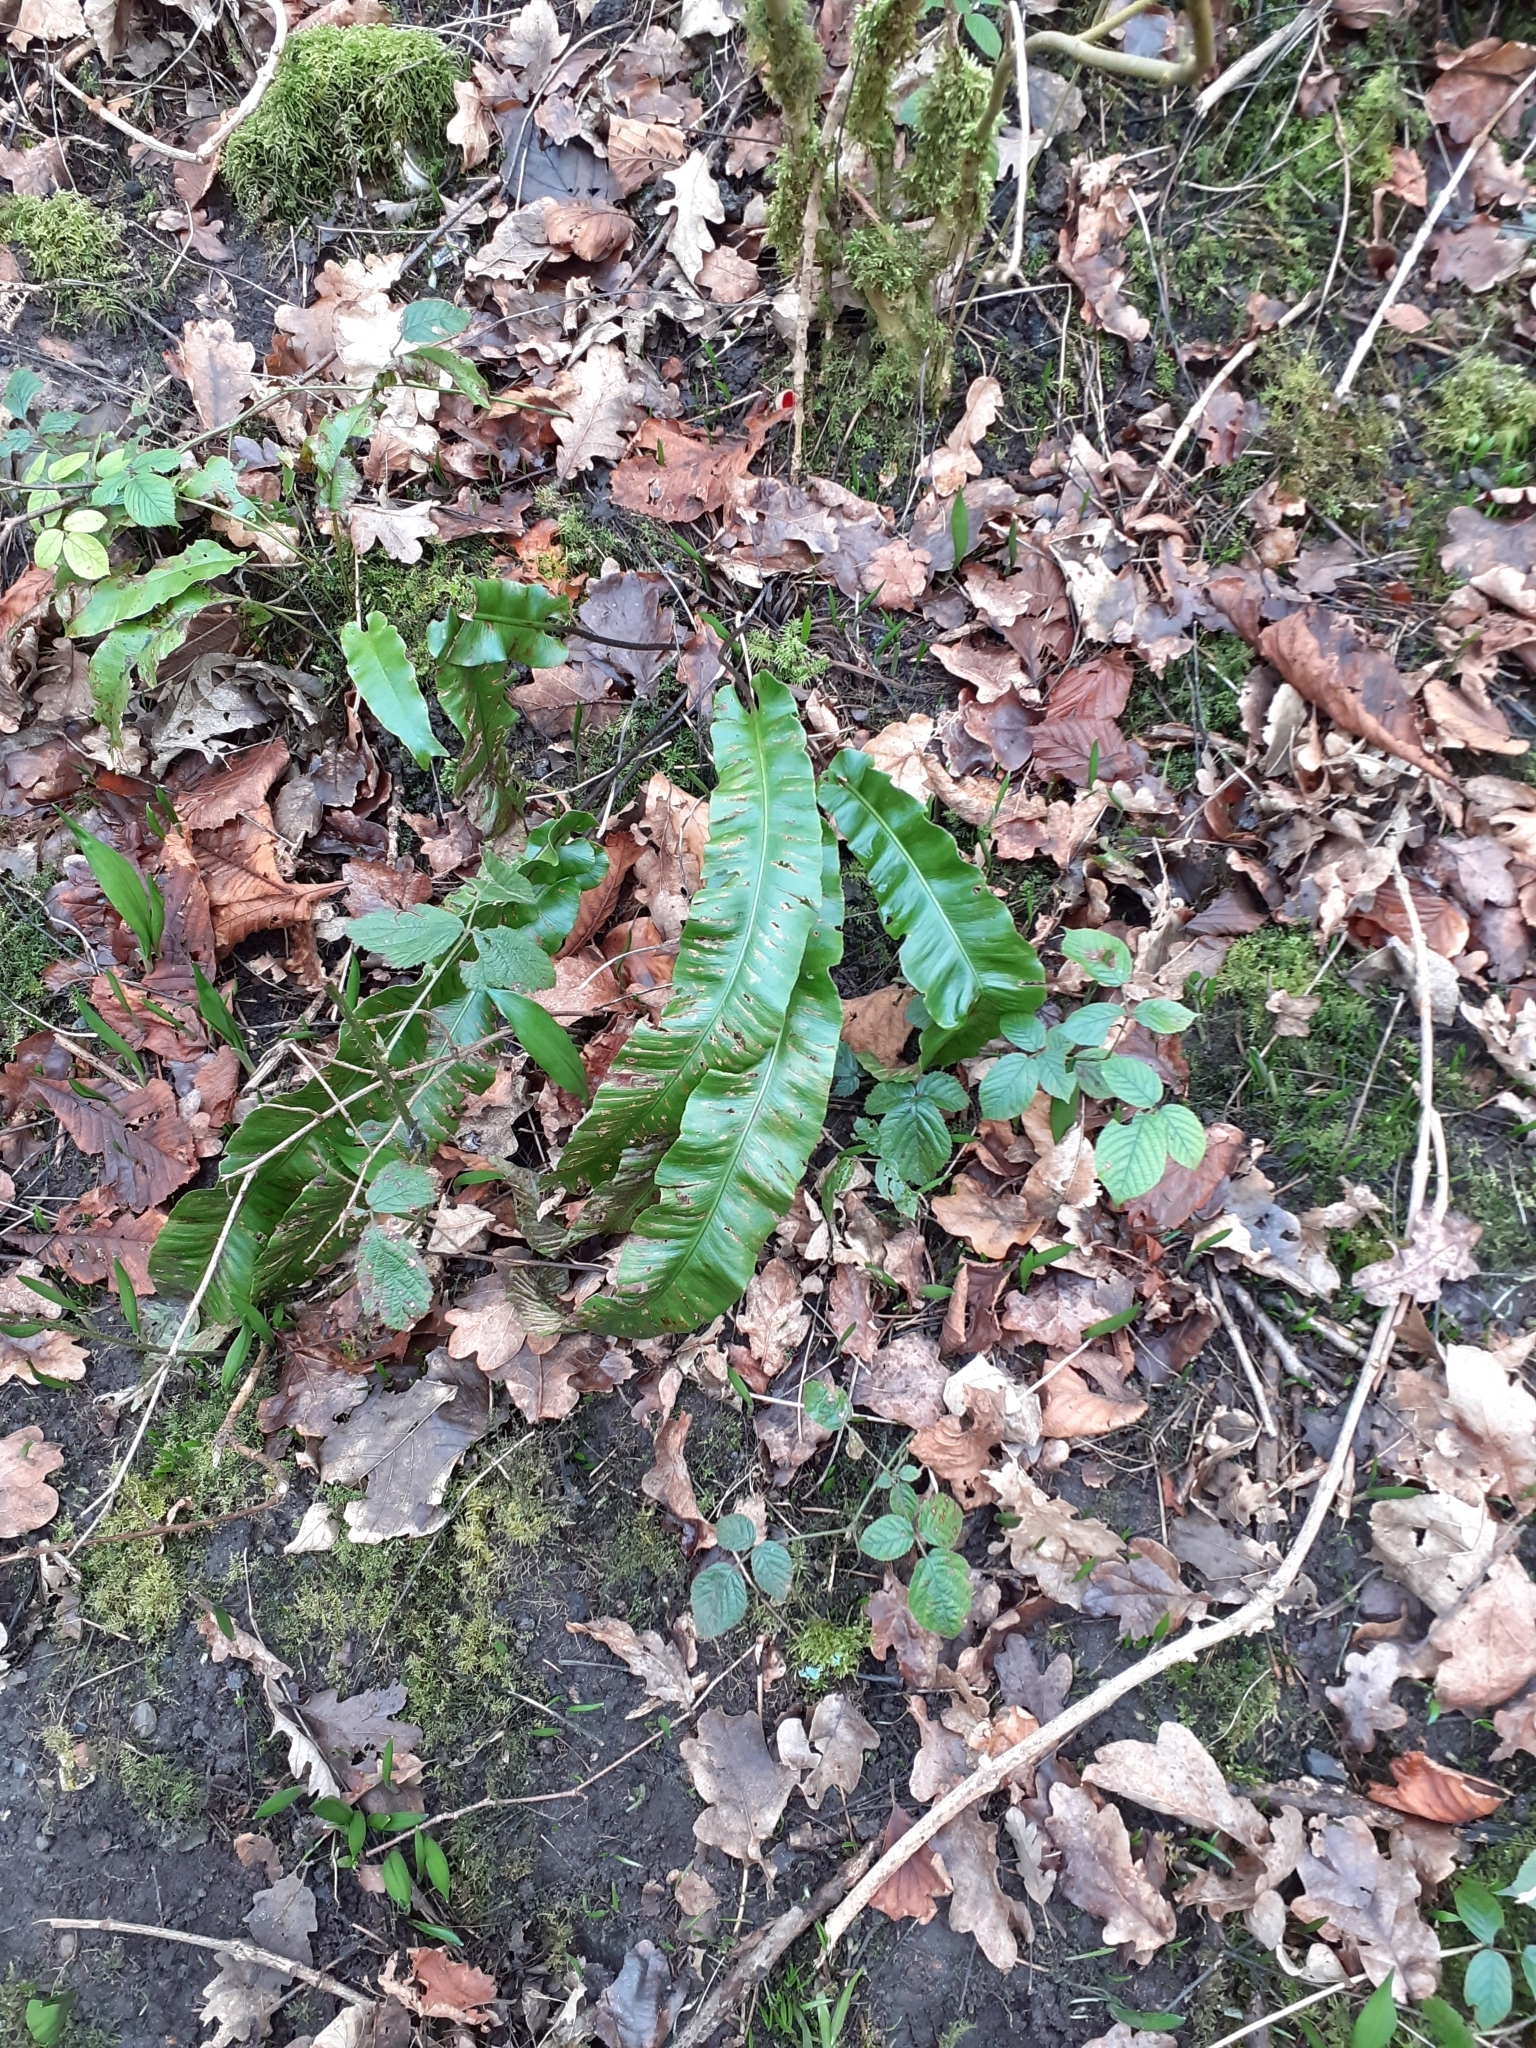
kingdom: Plantae
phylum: Tracheophyta
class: Polypodiopsida
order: Polypodiales
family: Aspleniaceae
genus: Asplenium
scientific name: Asplenium scolopendrium
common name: Hart's-tongue fern
